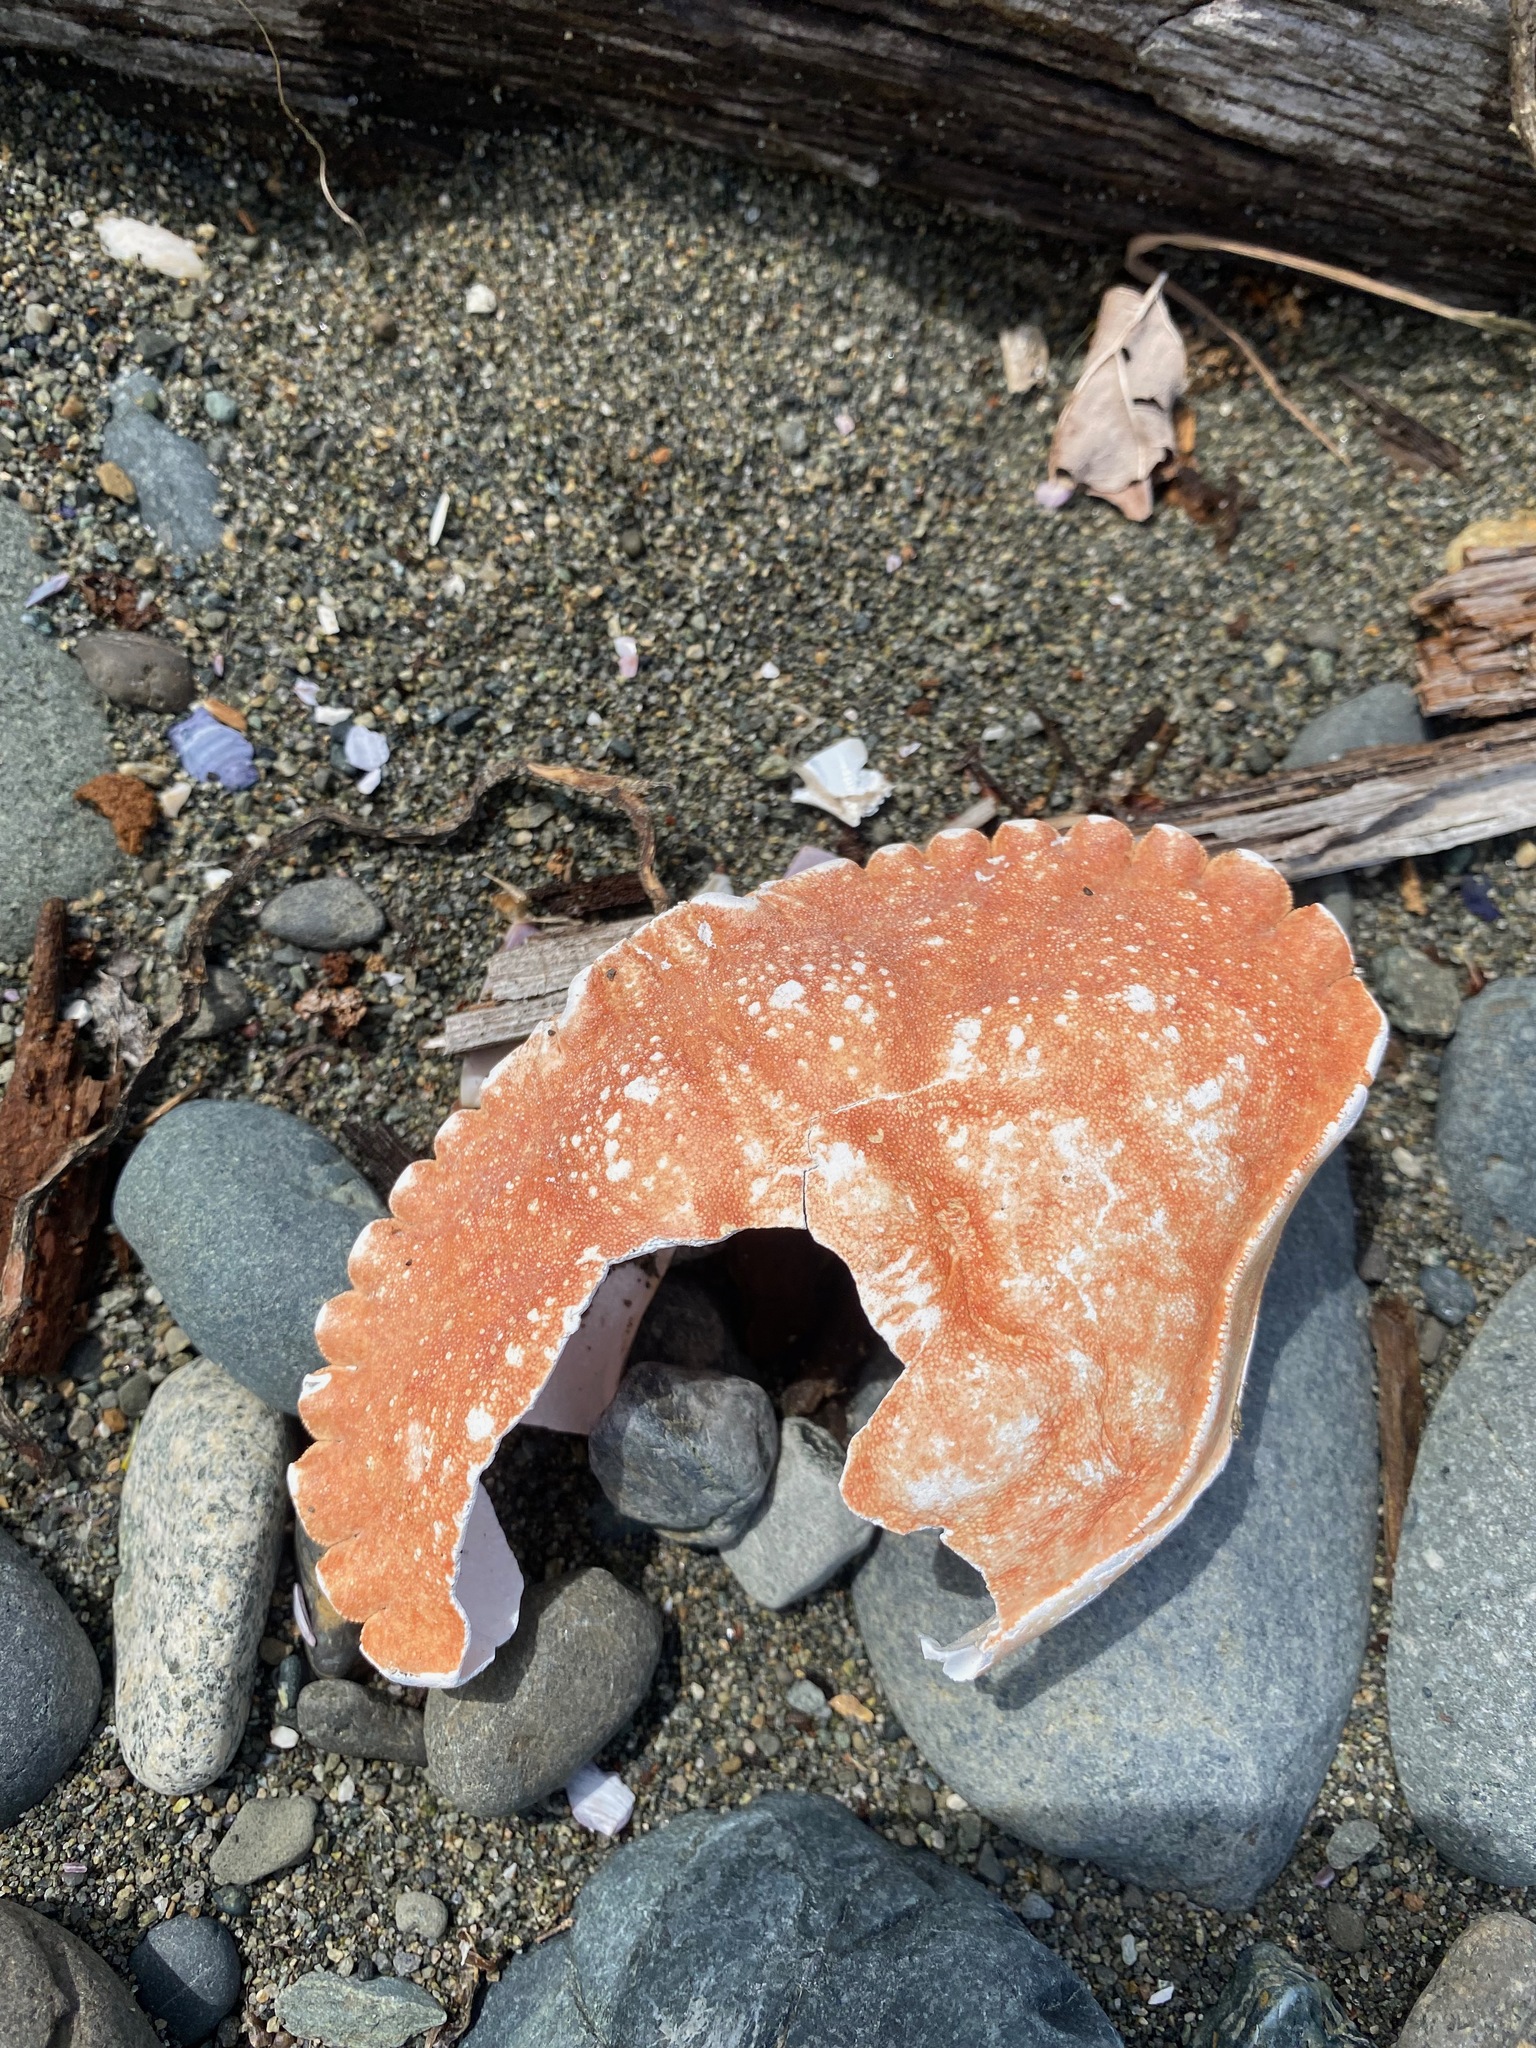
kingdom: Animalia
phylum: Arthropoda
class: Malacostraca
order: Decapoda
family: Cancridae
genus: Cancer
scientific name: Cancer productus
